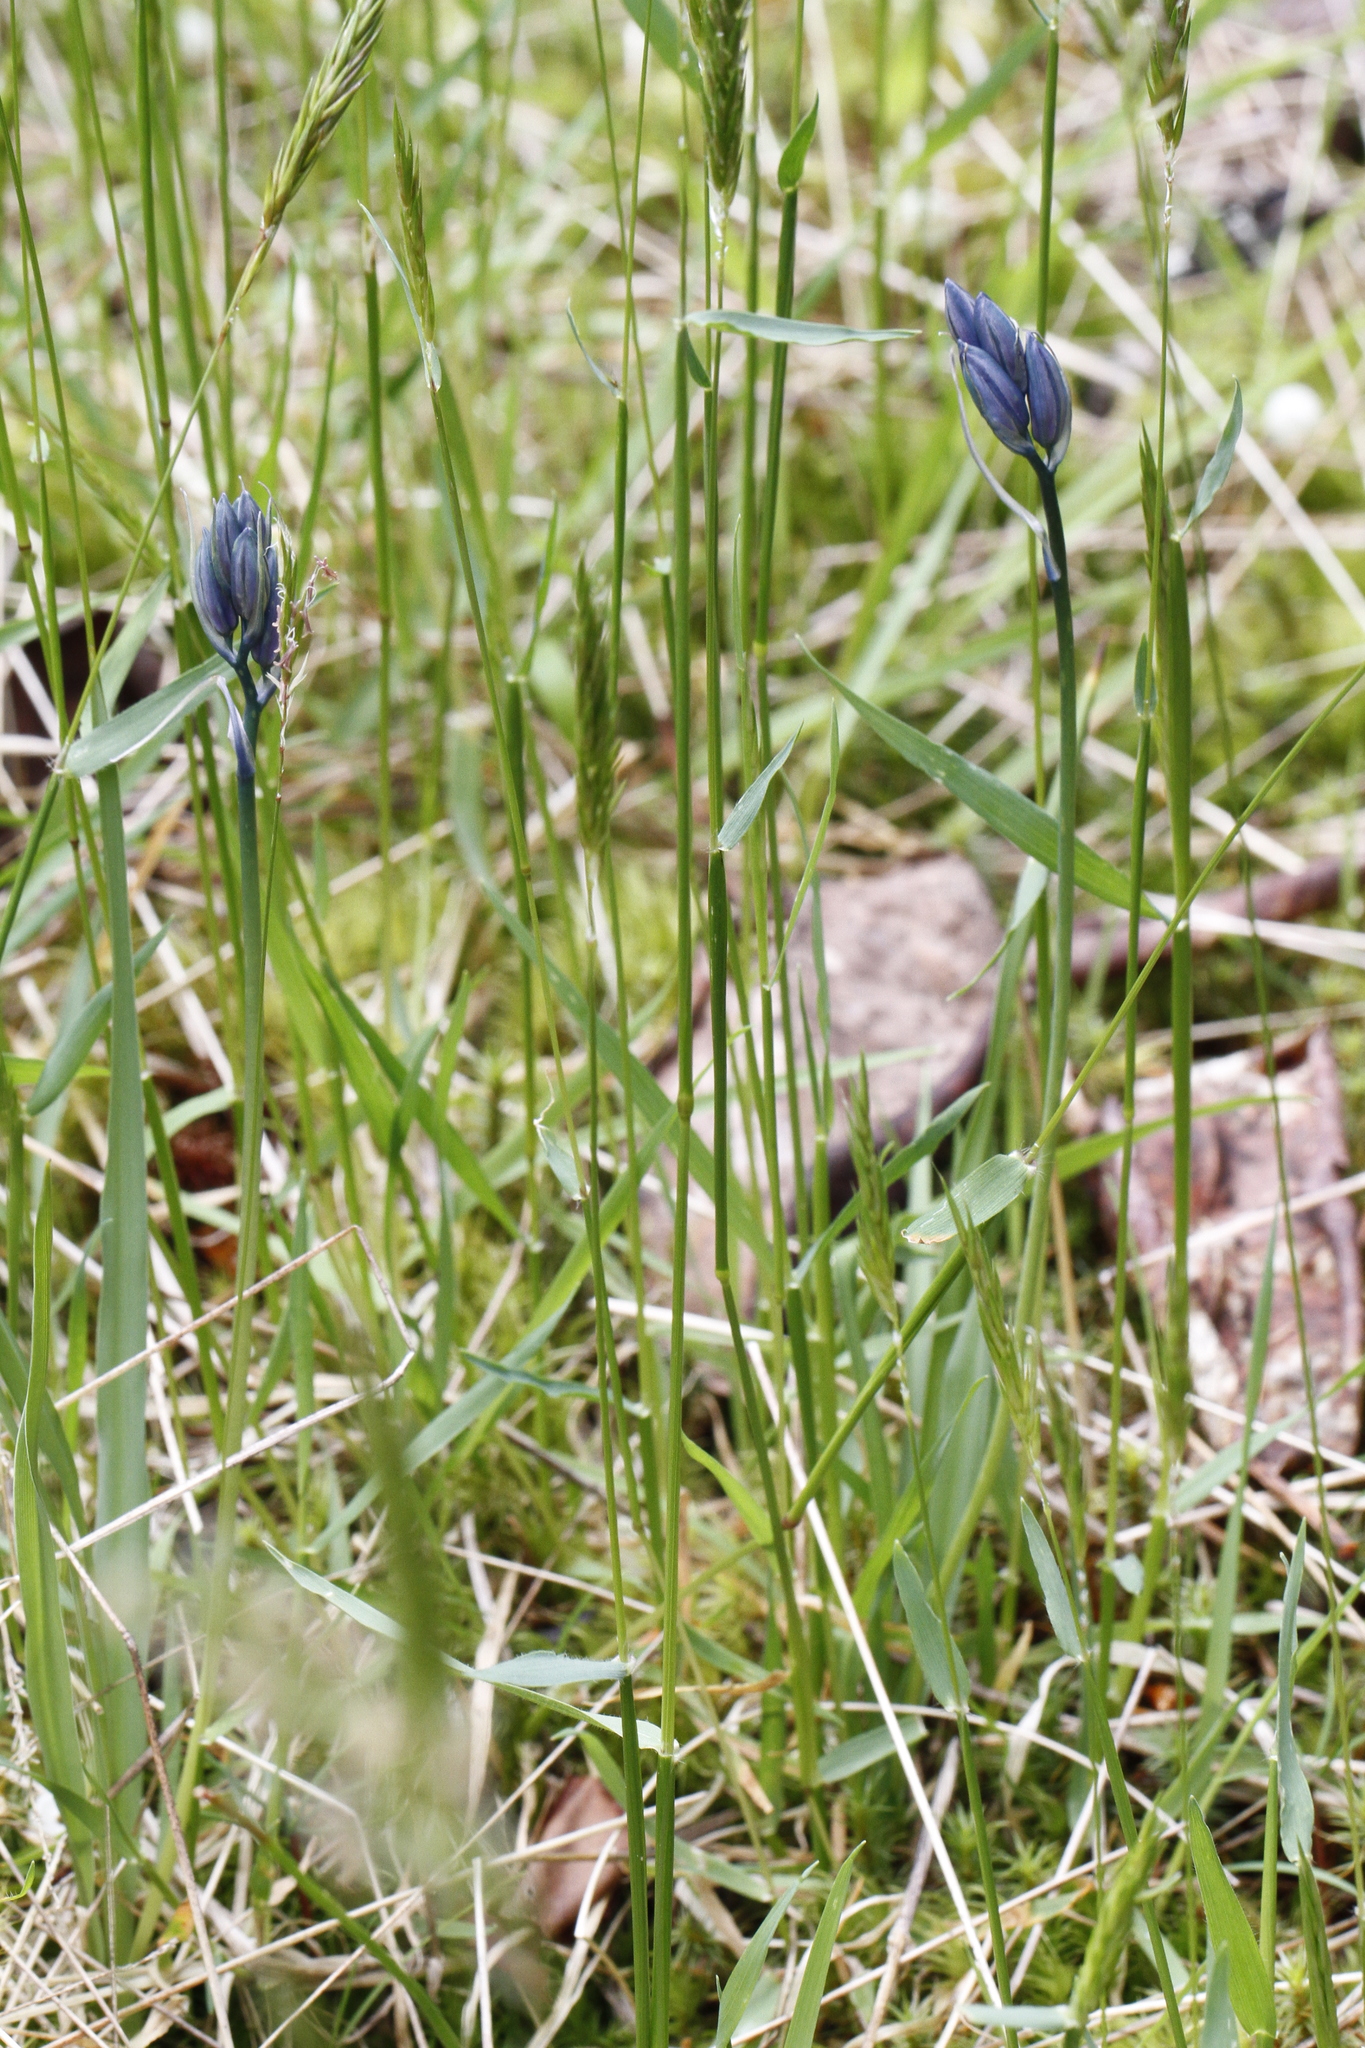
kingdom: Plantae
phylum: Tracheophyta
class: Liliopsida
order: Asparagales
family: Asparagaceae
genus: Camassia
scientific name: Camassia quamash
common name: Common camas
